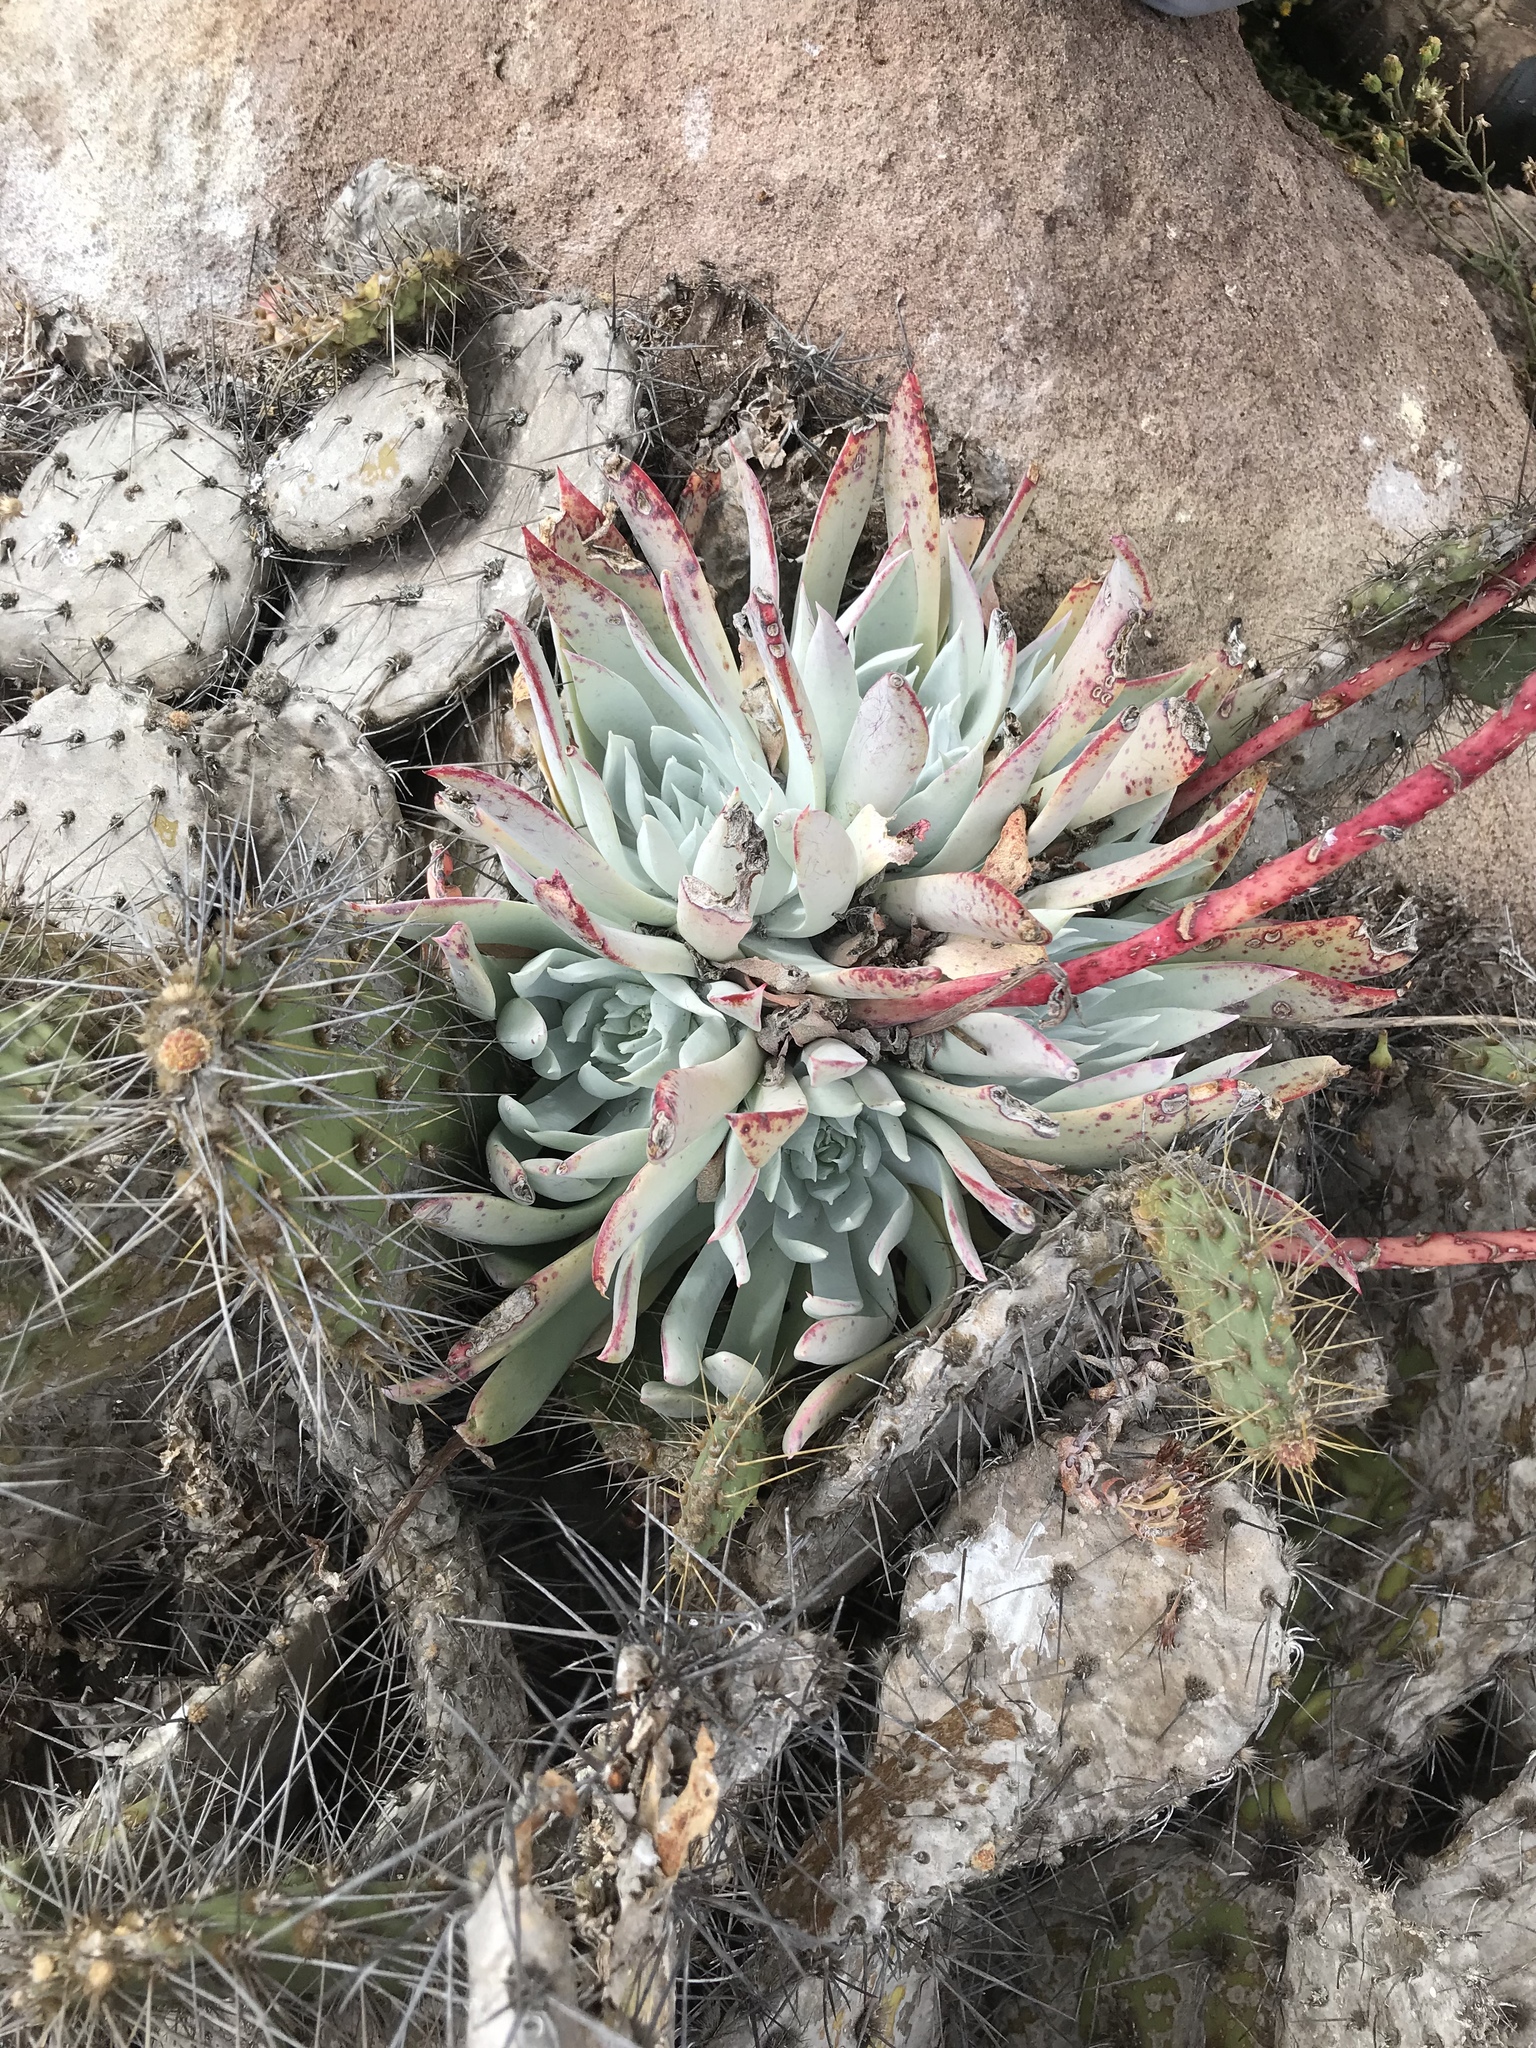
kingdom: Plantae
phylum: Tracheophyta
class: Magnoliopsida
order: Saxifragales
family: Crassulaceae
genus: Dudleya
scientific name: Dudleya candida
